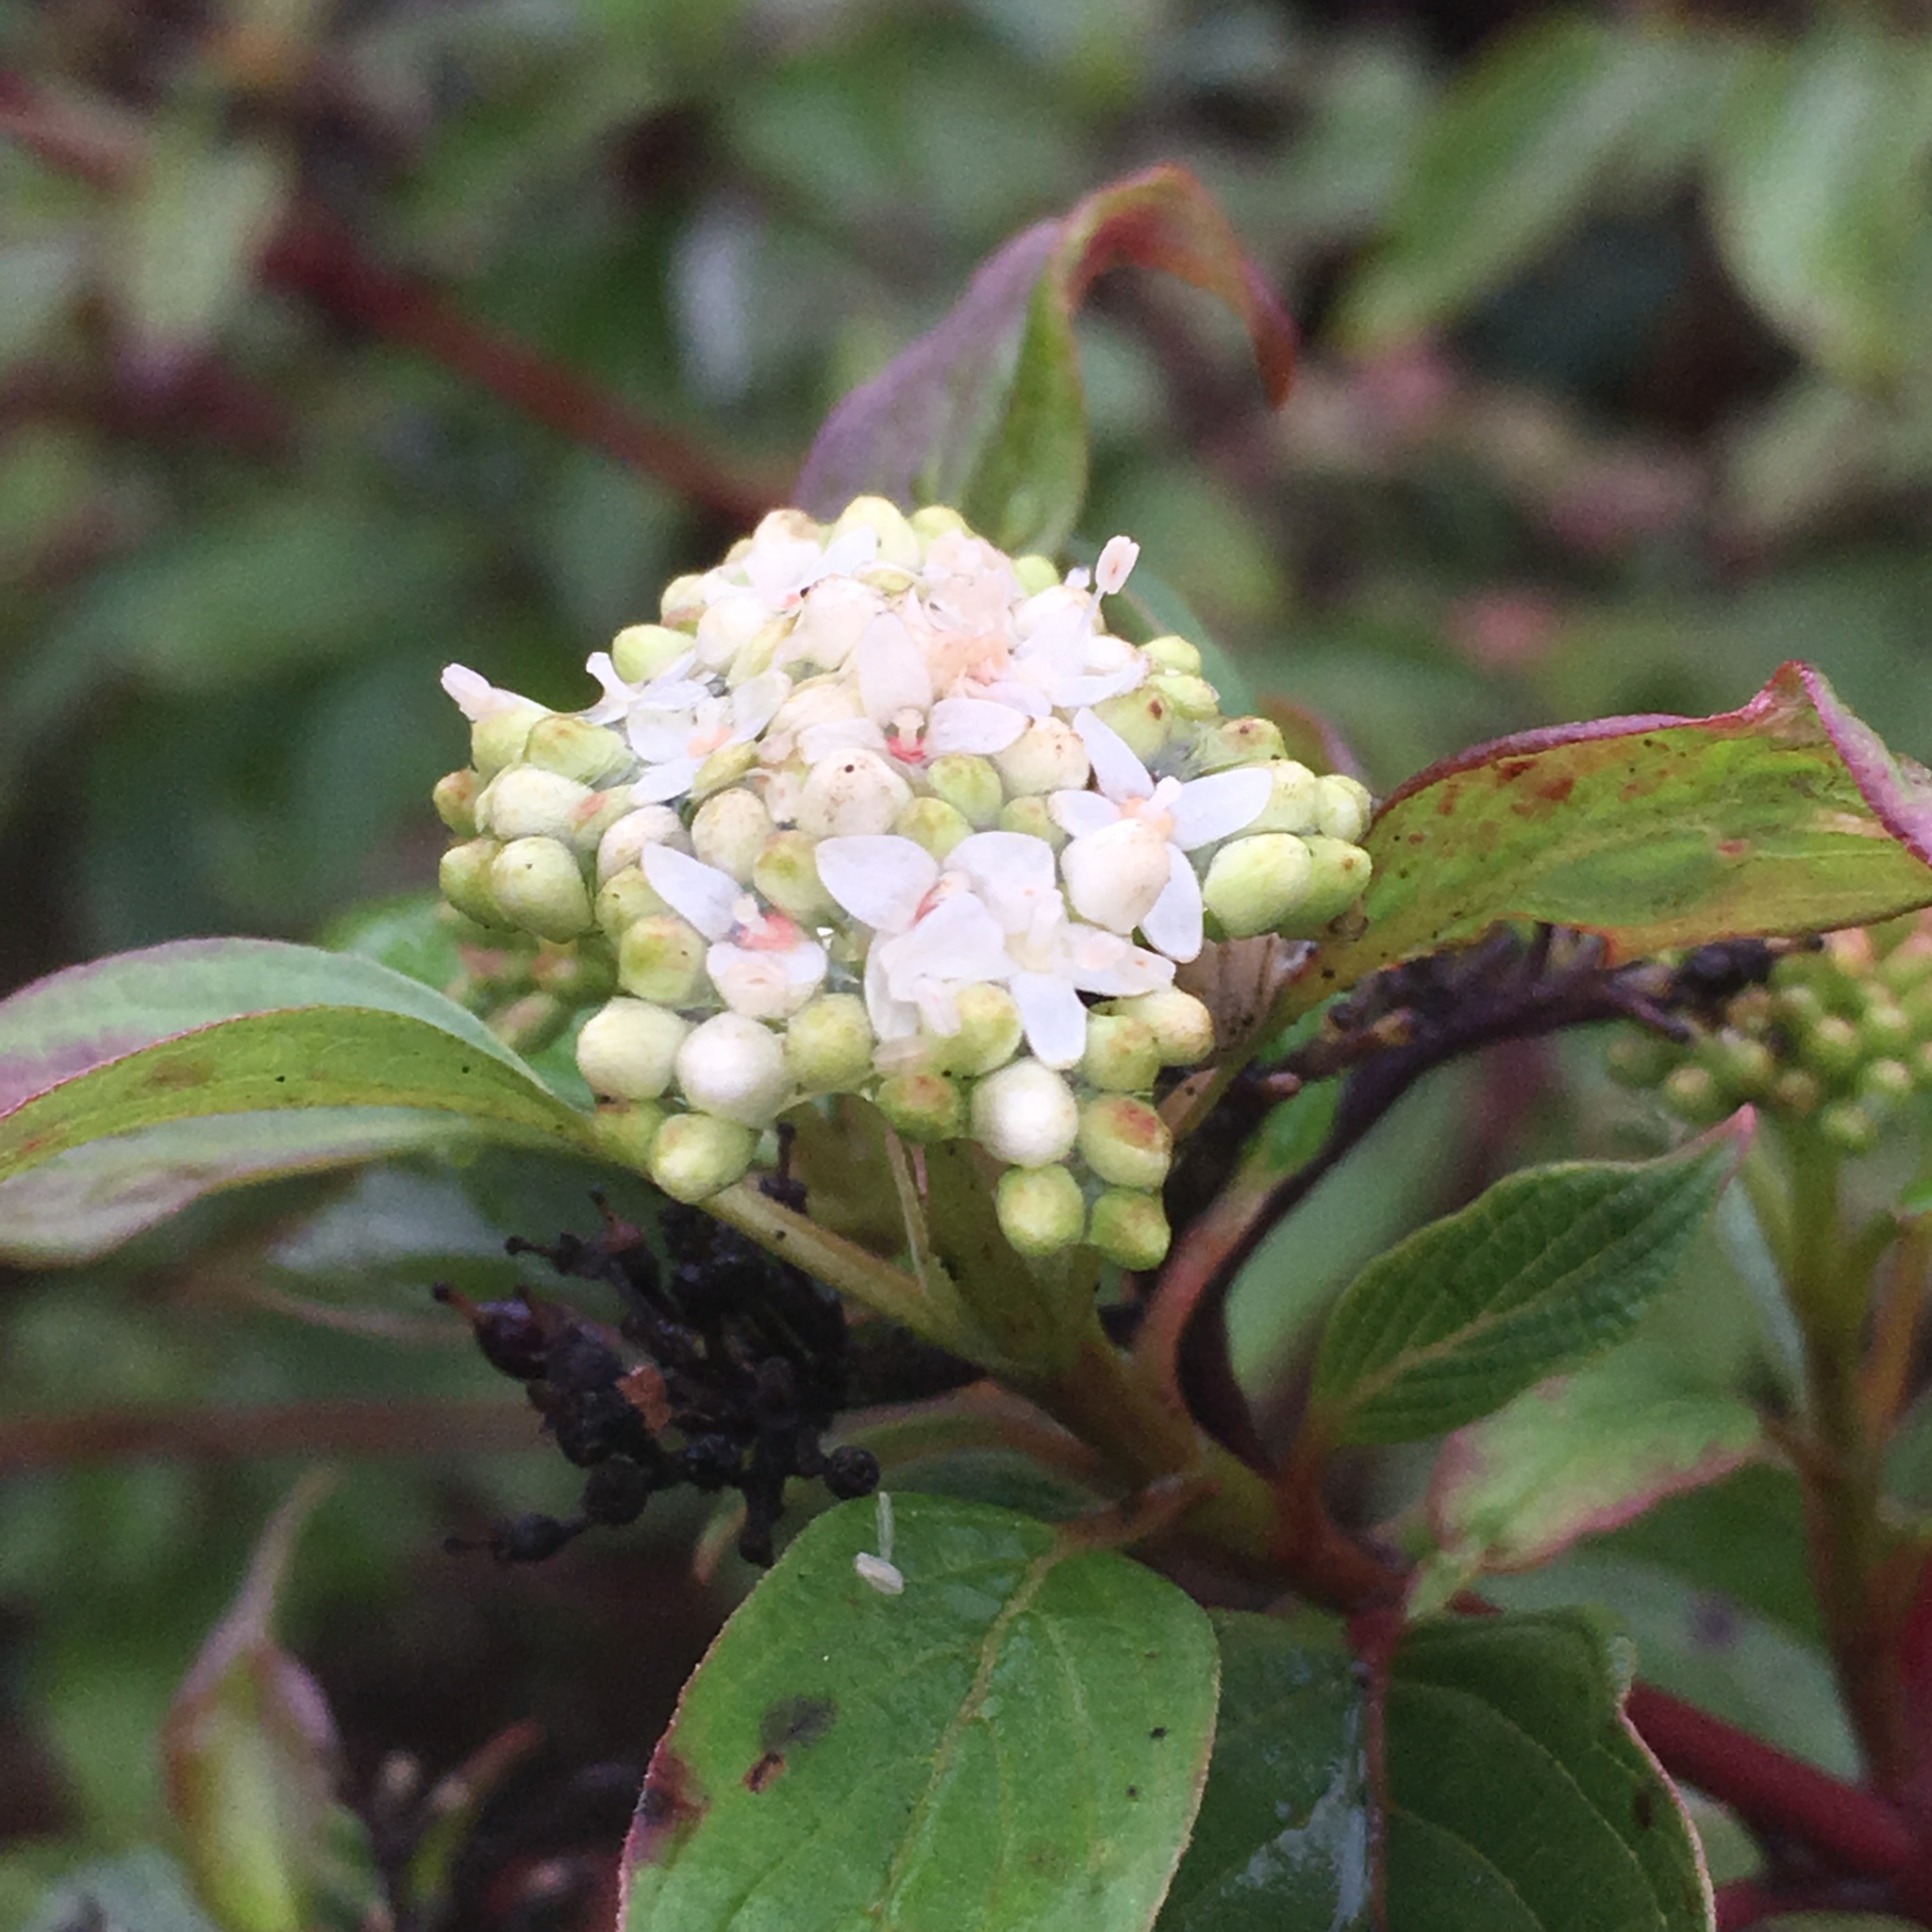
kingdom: Plantae
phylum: Tracheophyta
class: Magnoliopsida
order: Cornales
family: Cornaceae
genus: Cornus
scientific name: Cornus sericea
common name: Red-osier dogwood
